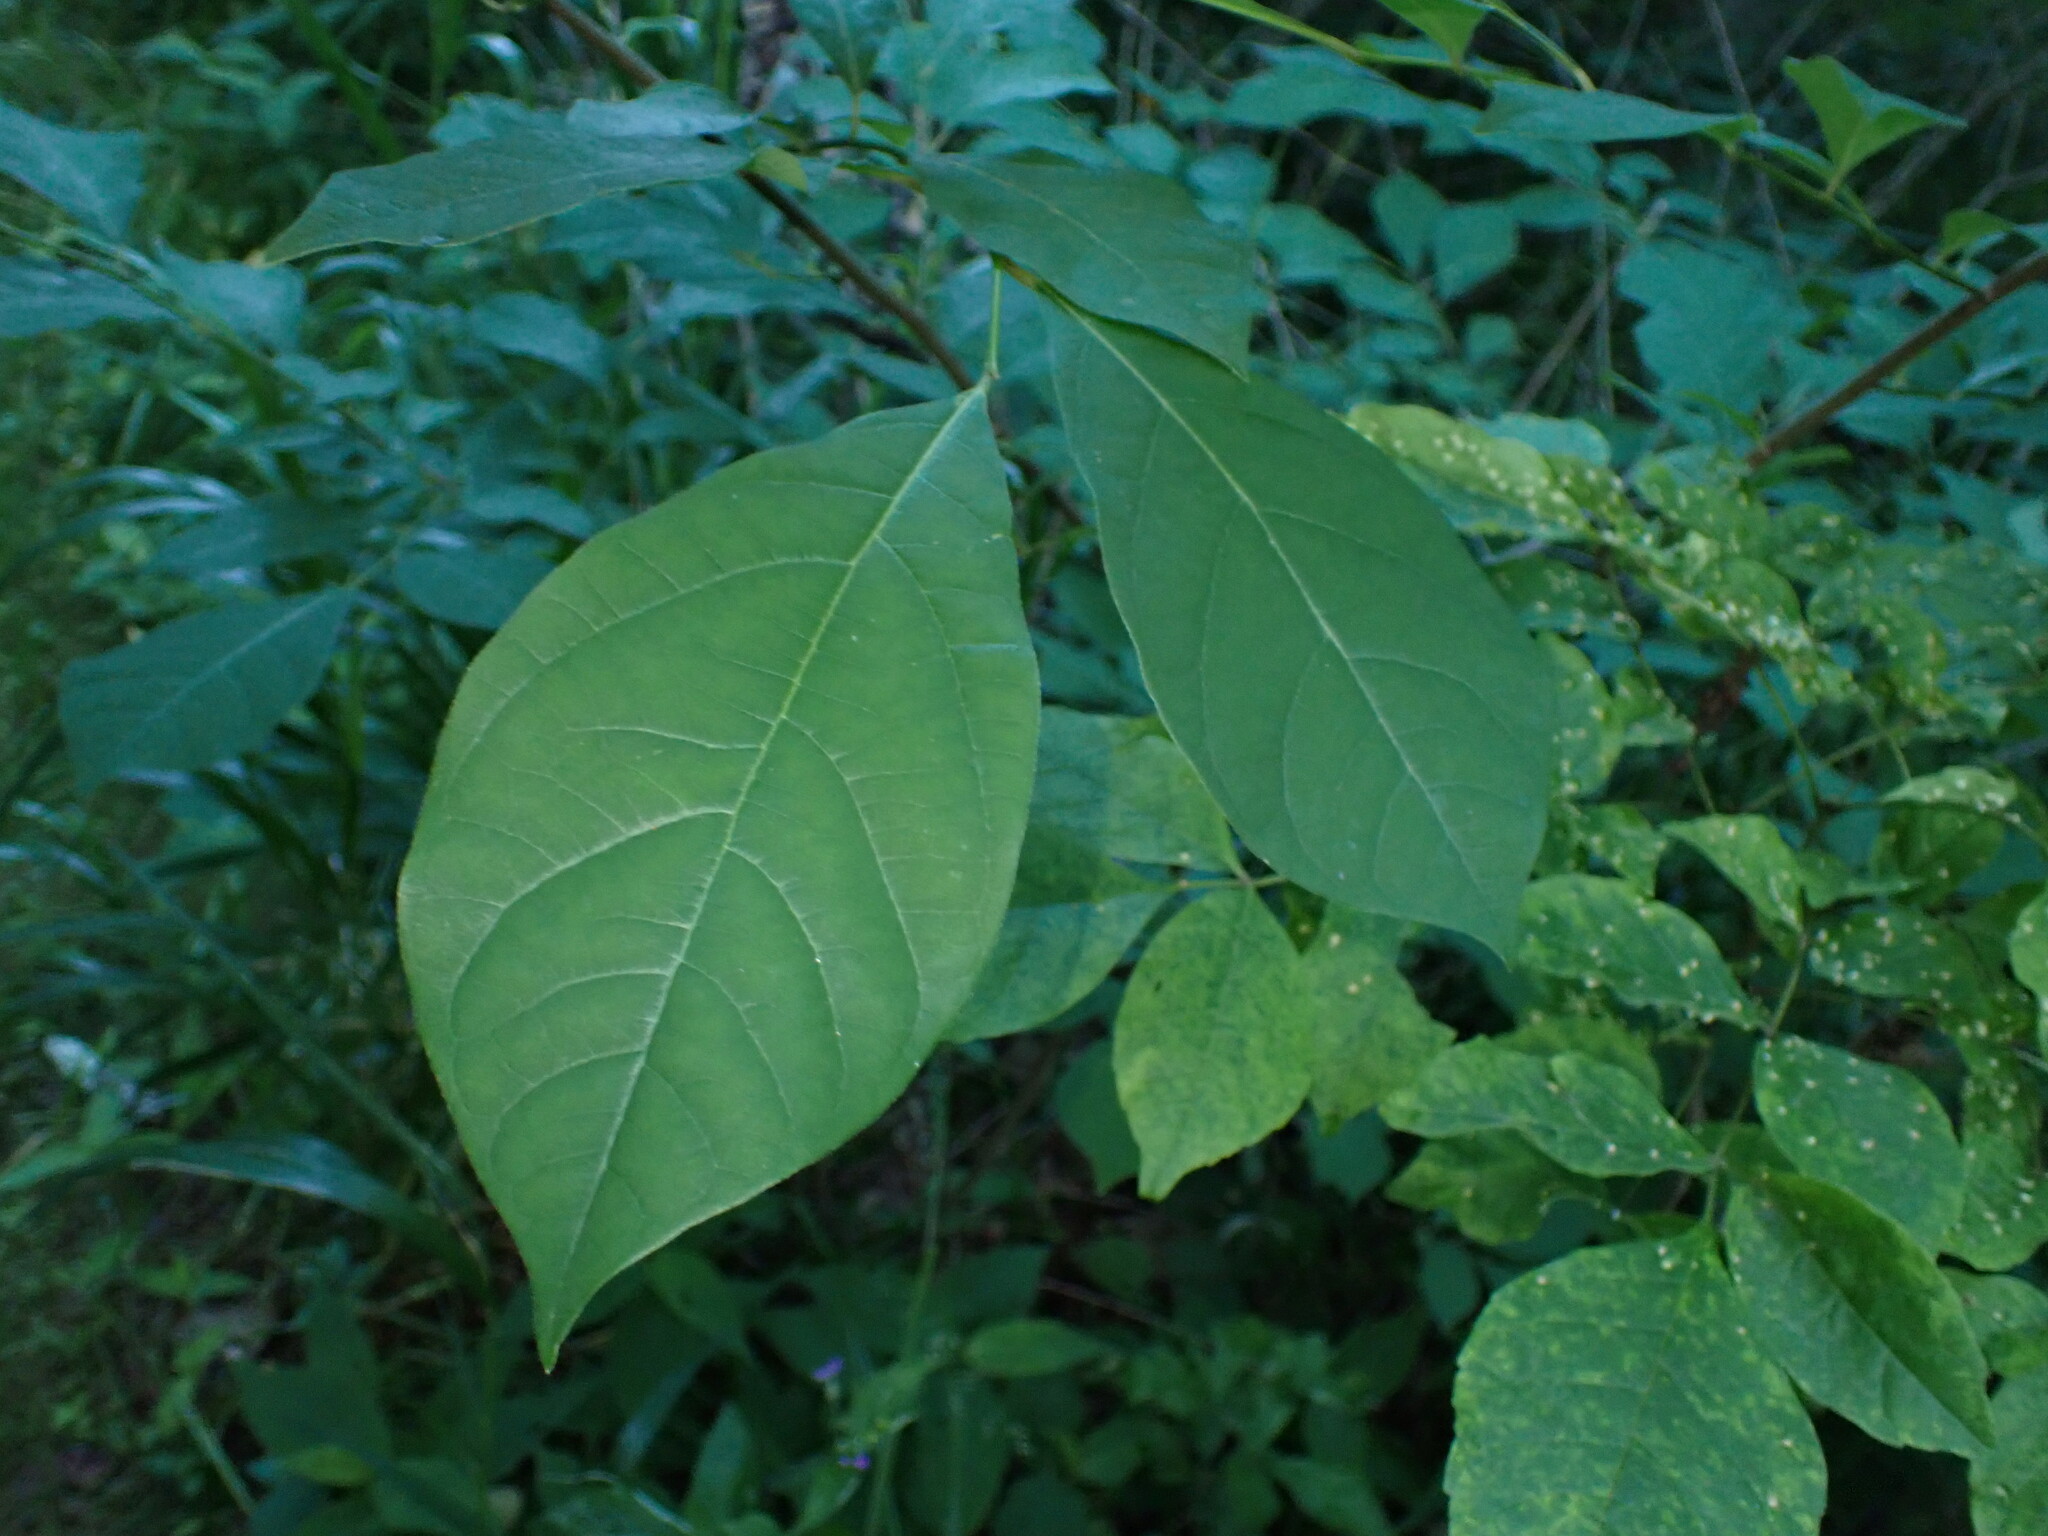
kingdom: Plantae
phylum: Tracheophyta
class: Magnoliopsida
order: Laurales
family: Lauraceae
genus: Lindera
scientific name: Lindera benzoin
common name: Spicebush
